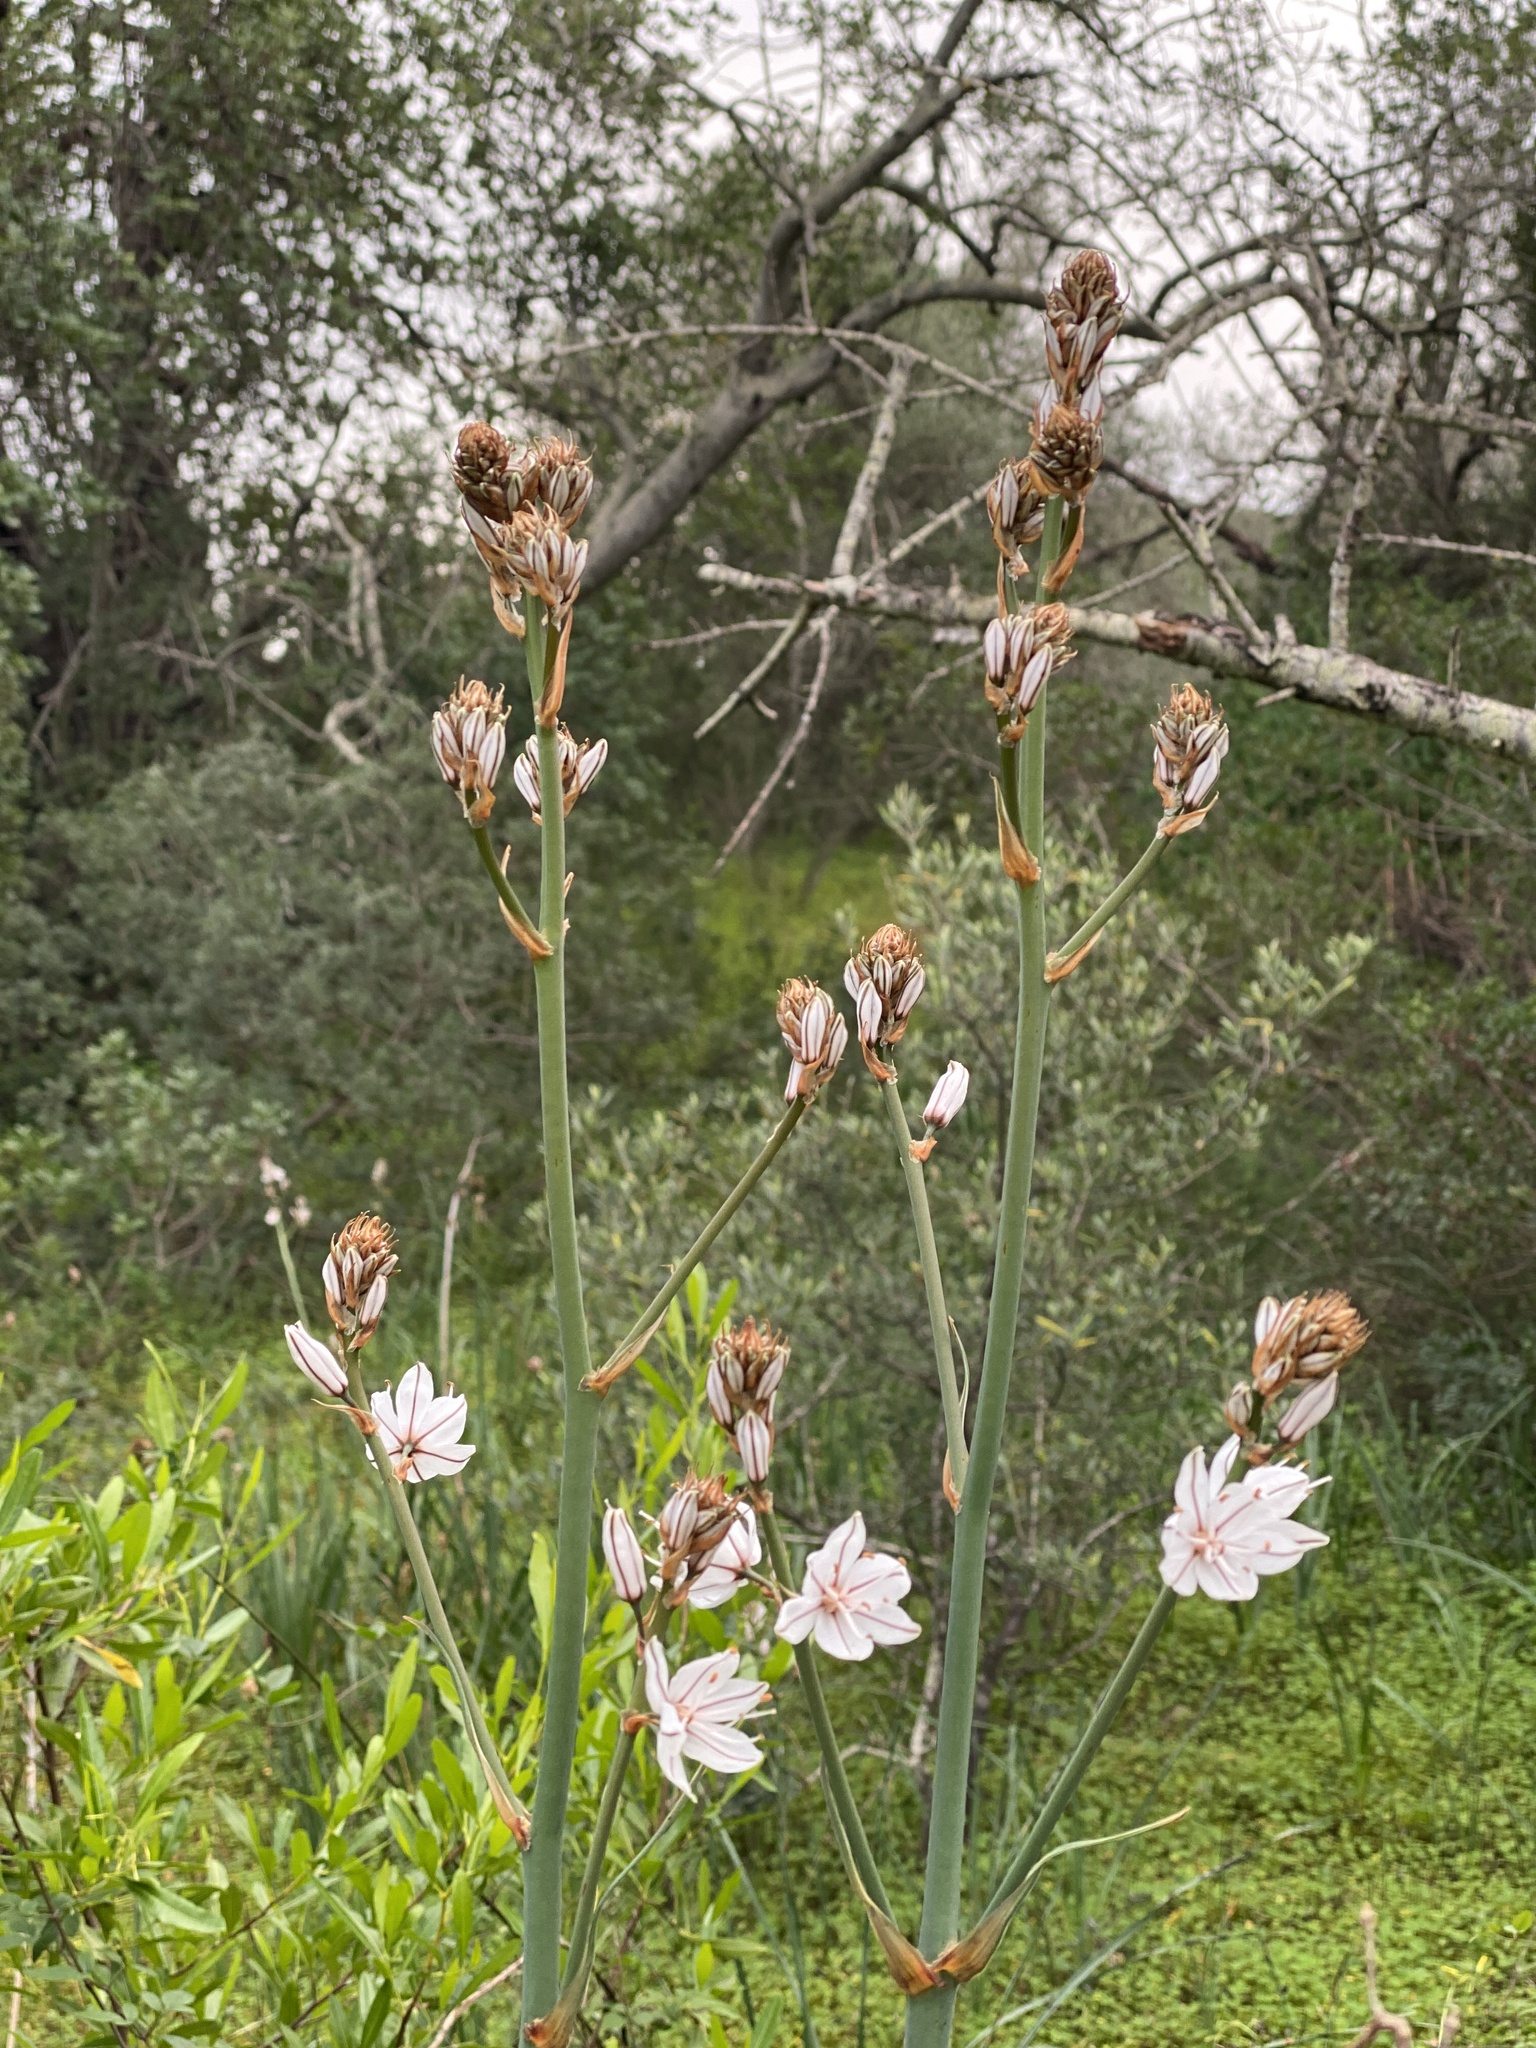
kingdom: Plantae
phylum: Tracheophyta
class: Liliopsida
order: Asparagales
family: Asphodelaceae
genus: Asphodelus
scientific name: Asphodelus ramosus
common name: Silverrod
